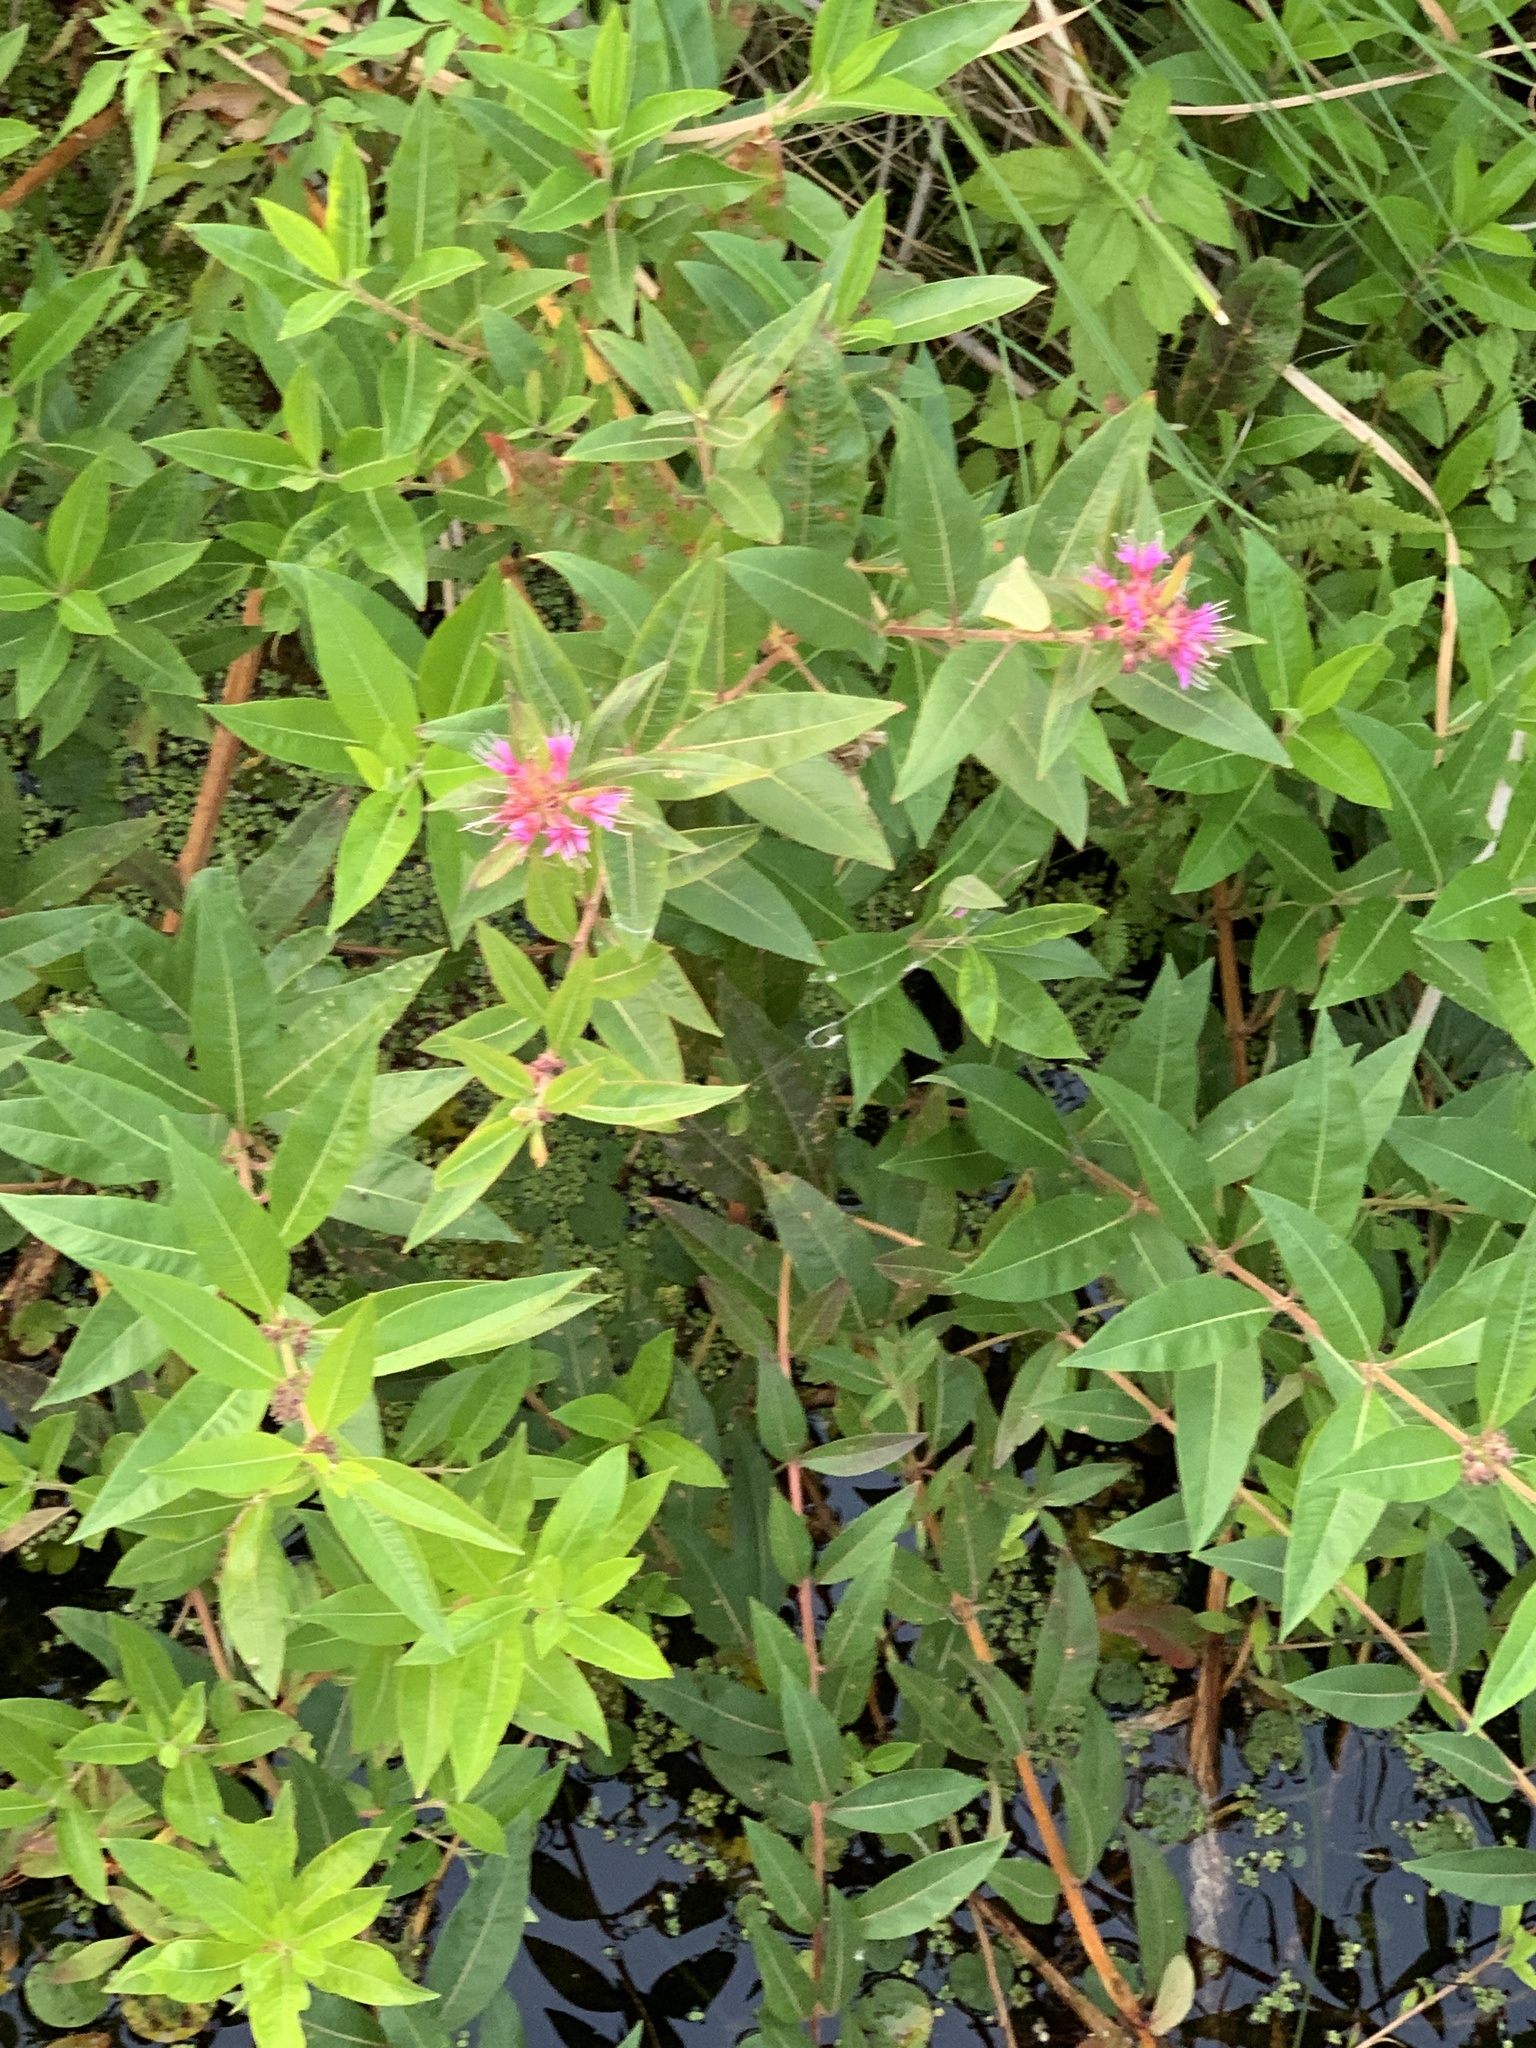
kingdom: Plantae
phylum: Tracheophyta
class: Magnoliopsida
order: Myrtales
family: Lythraceae
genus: Decodon
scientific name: Decodon verticillatus
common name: Hairy swamp loosestrife
